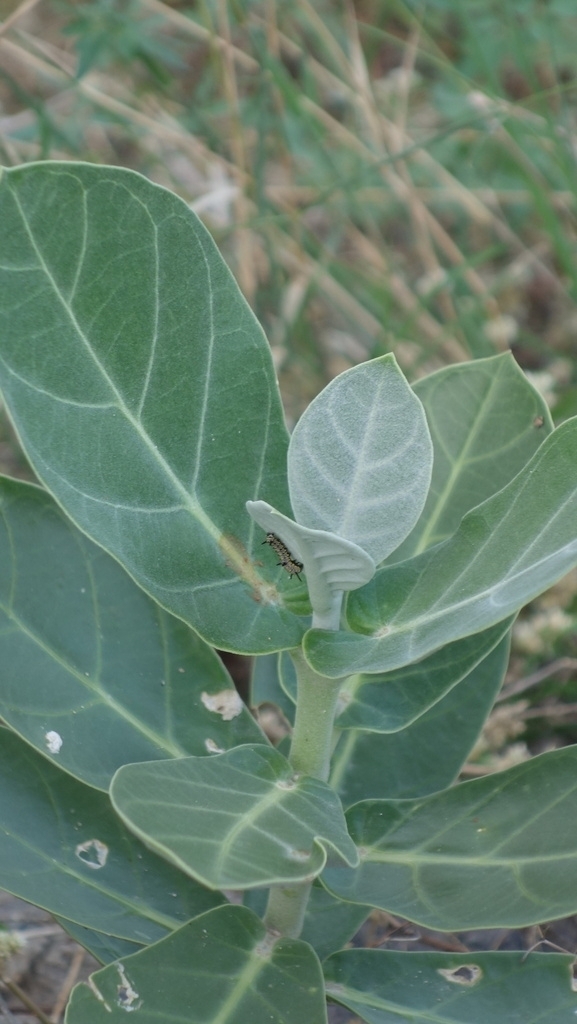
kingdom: Animalia
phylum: Arthropoda
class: Insecta
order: Lepidoptera
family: Nymphalidae
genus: Danaus
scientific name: Danaus chrysippus
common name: Plain tiger
